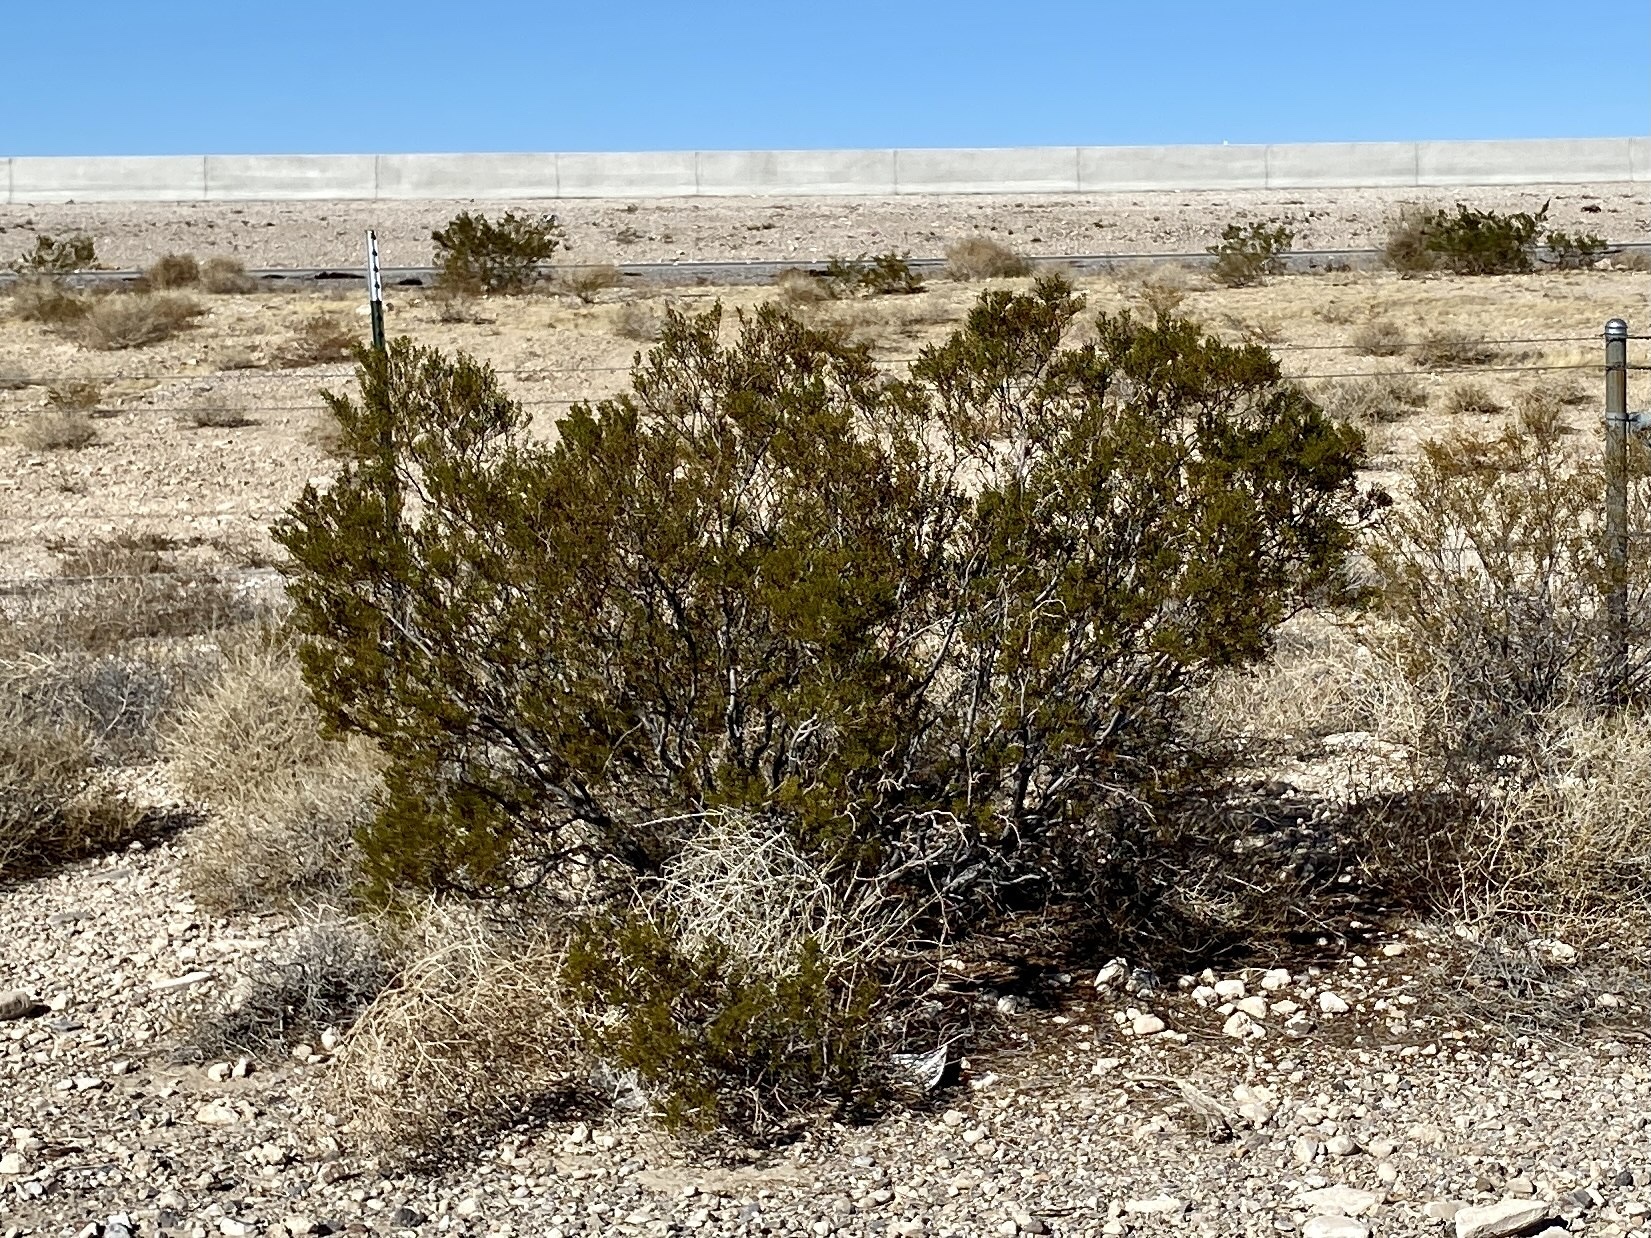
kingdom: Plantae
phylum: Tracheophyta
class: Magnoliopsida
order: Zygophyllales
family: Zygophyllaceae
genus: Larrea
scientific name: Larrea tridentata
